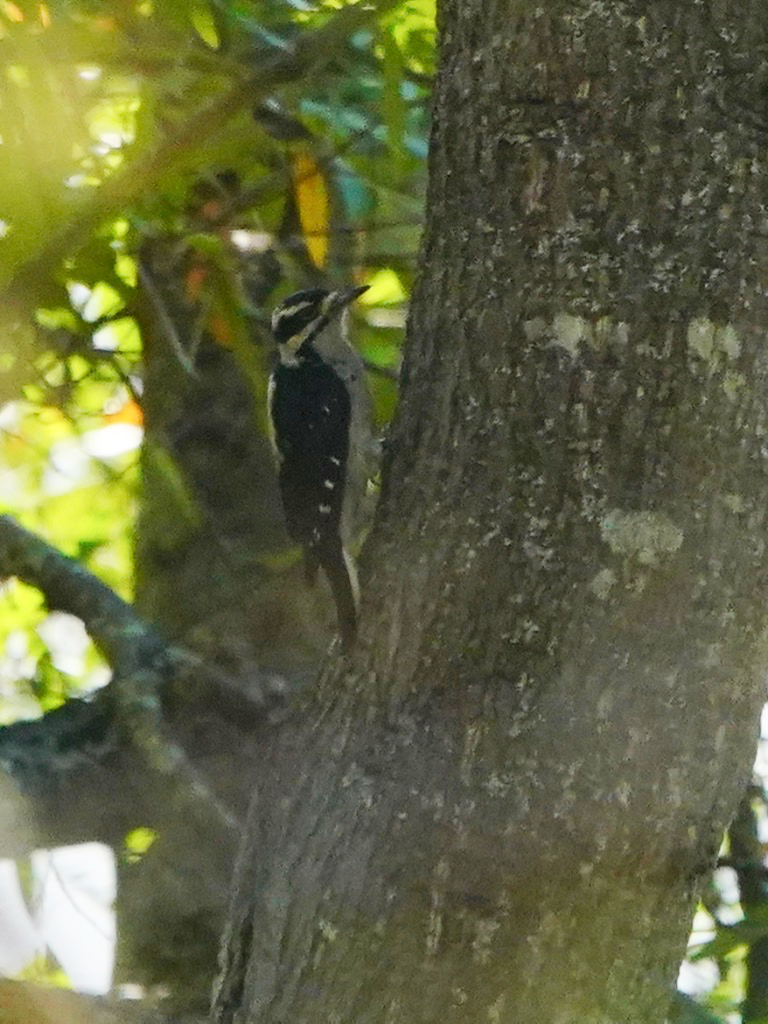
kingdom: Animalia
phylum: Chordata
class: Aves
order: Piciformes
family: Picidae
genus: Dryobates
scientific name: Dryobates nuttallii
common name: Nuttall's woodpecker
